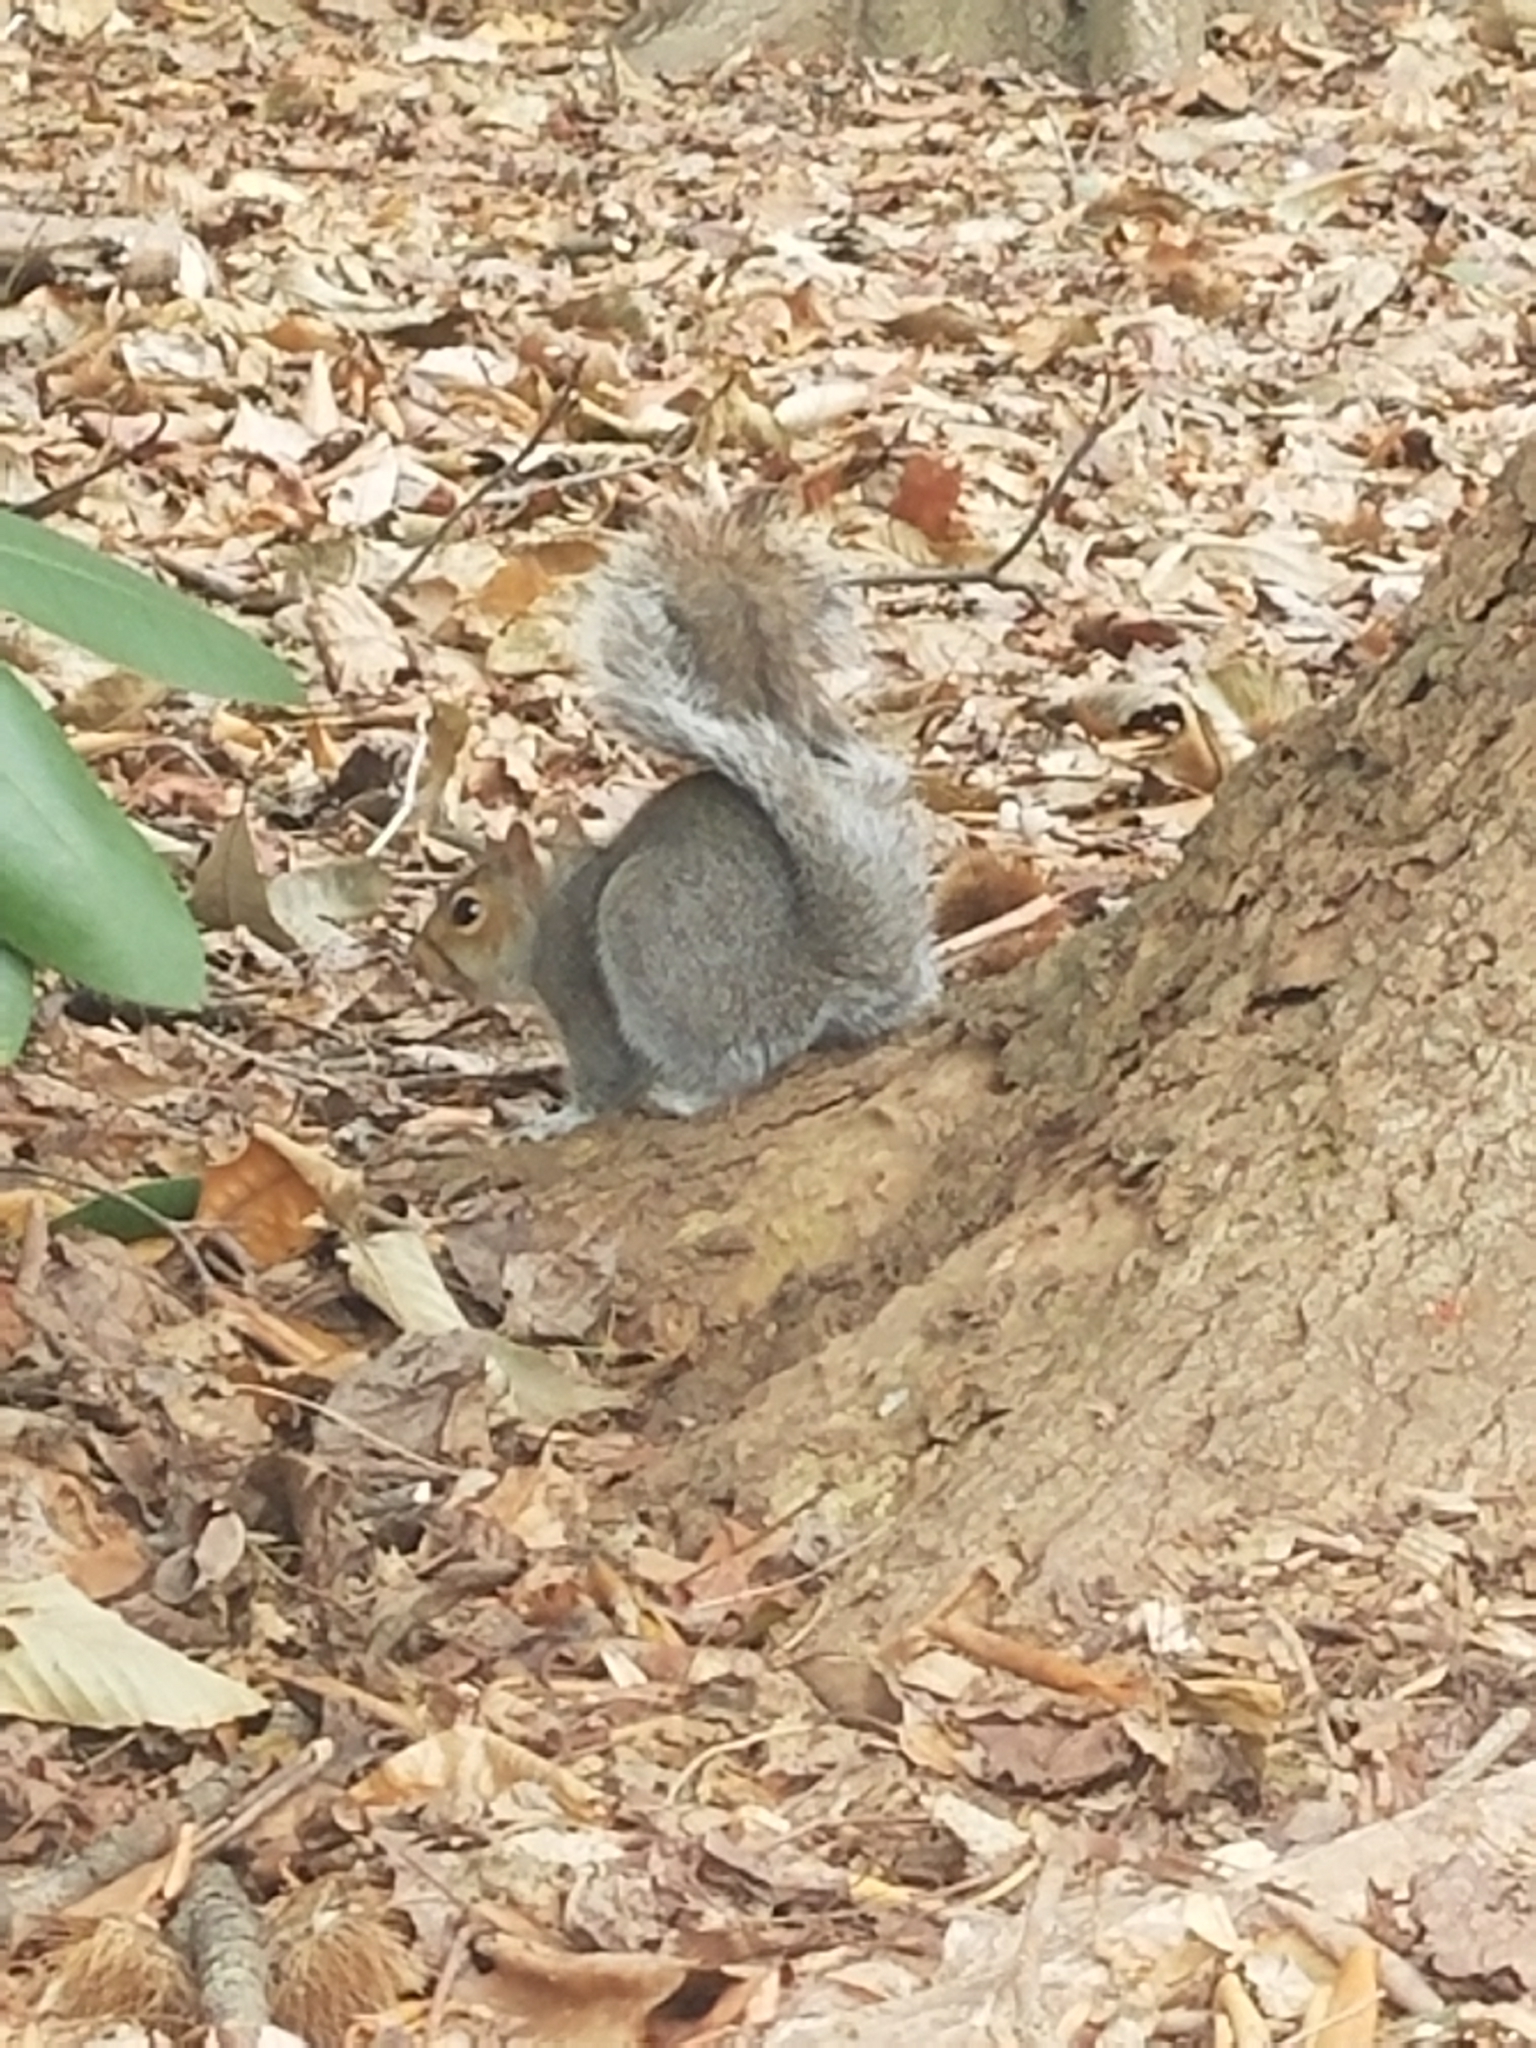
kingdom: Animalia
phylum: Chordata
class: Mammalia
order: Rodentia
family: Sciuridae
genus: Sciurus
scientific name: Sciurus carolinensis
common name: Eastern gray squirrel
